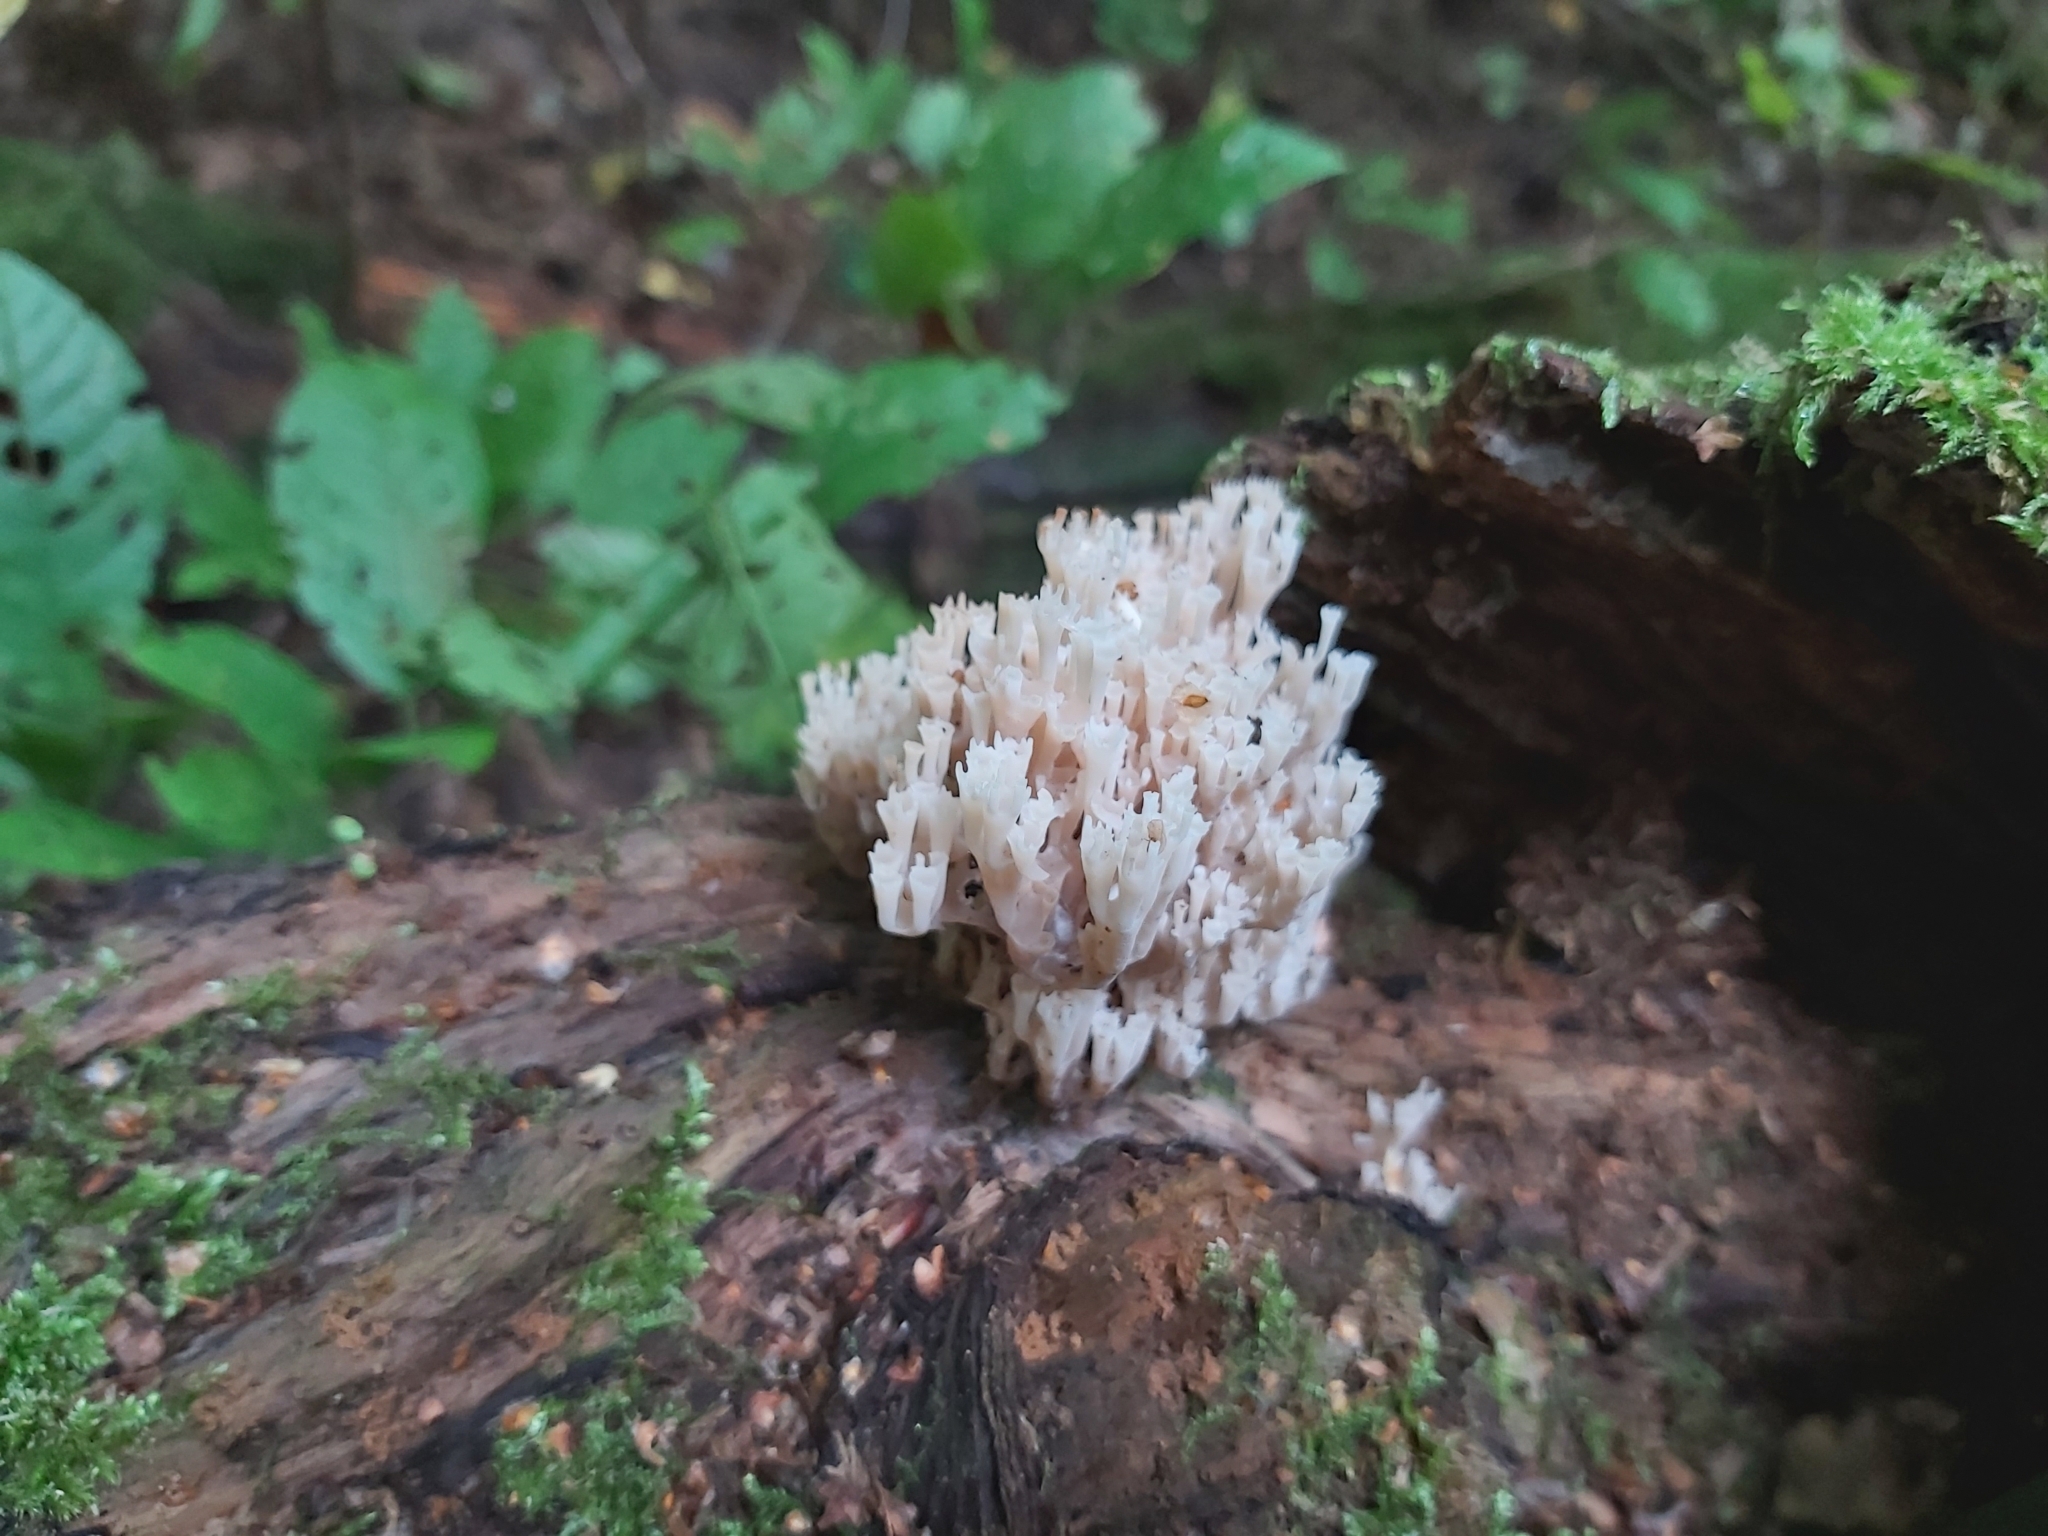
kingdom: Fungi
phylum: Basidiomycota
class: Agaricomycetes
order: Russulales
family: Auriscalpiaceae
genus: Artomyces
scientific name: Artomyces pyxidatus
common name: Crown-tipped coral fungus
